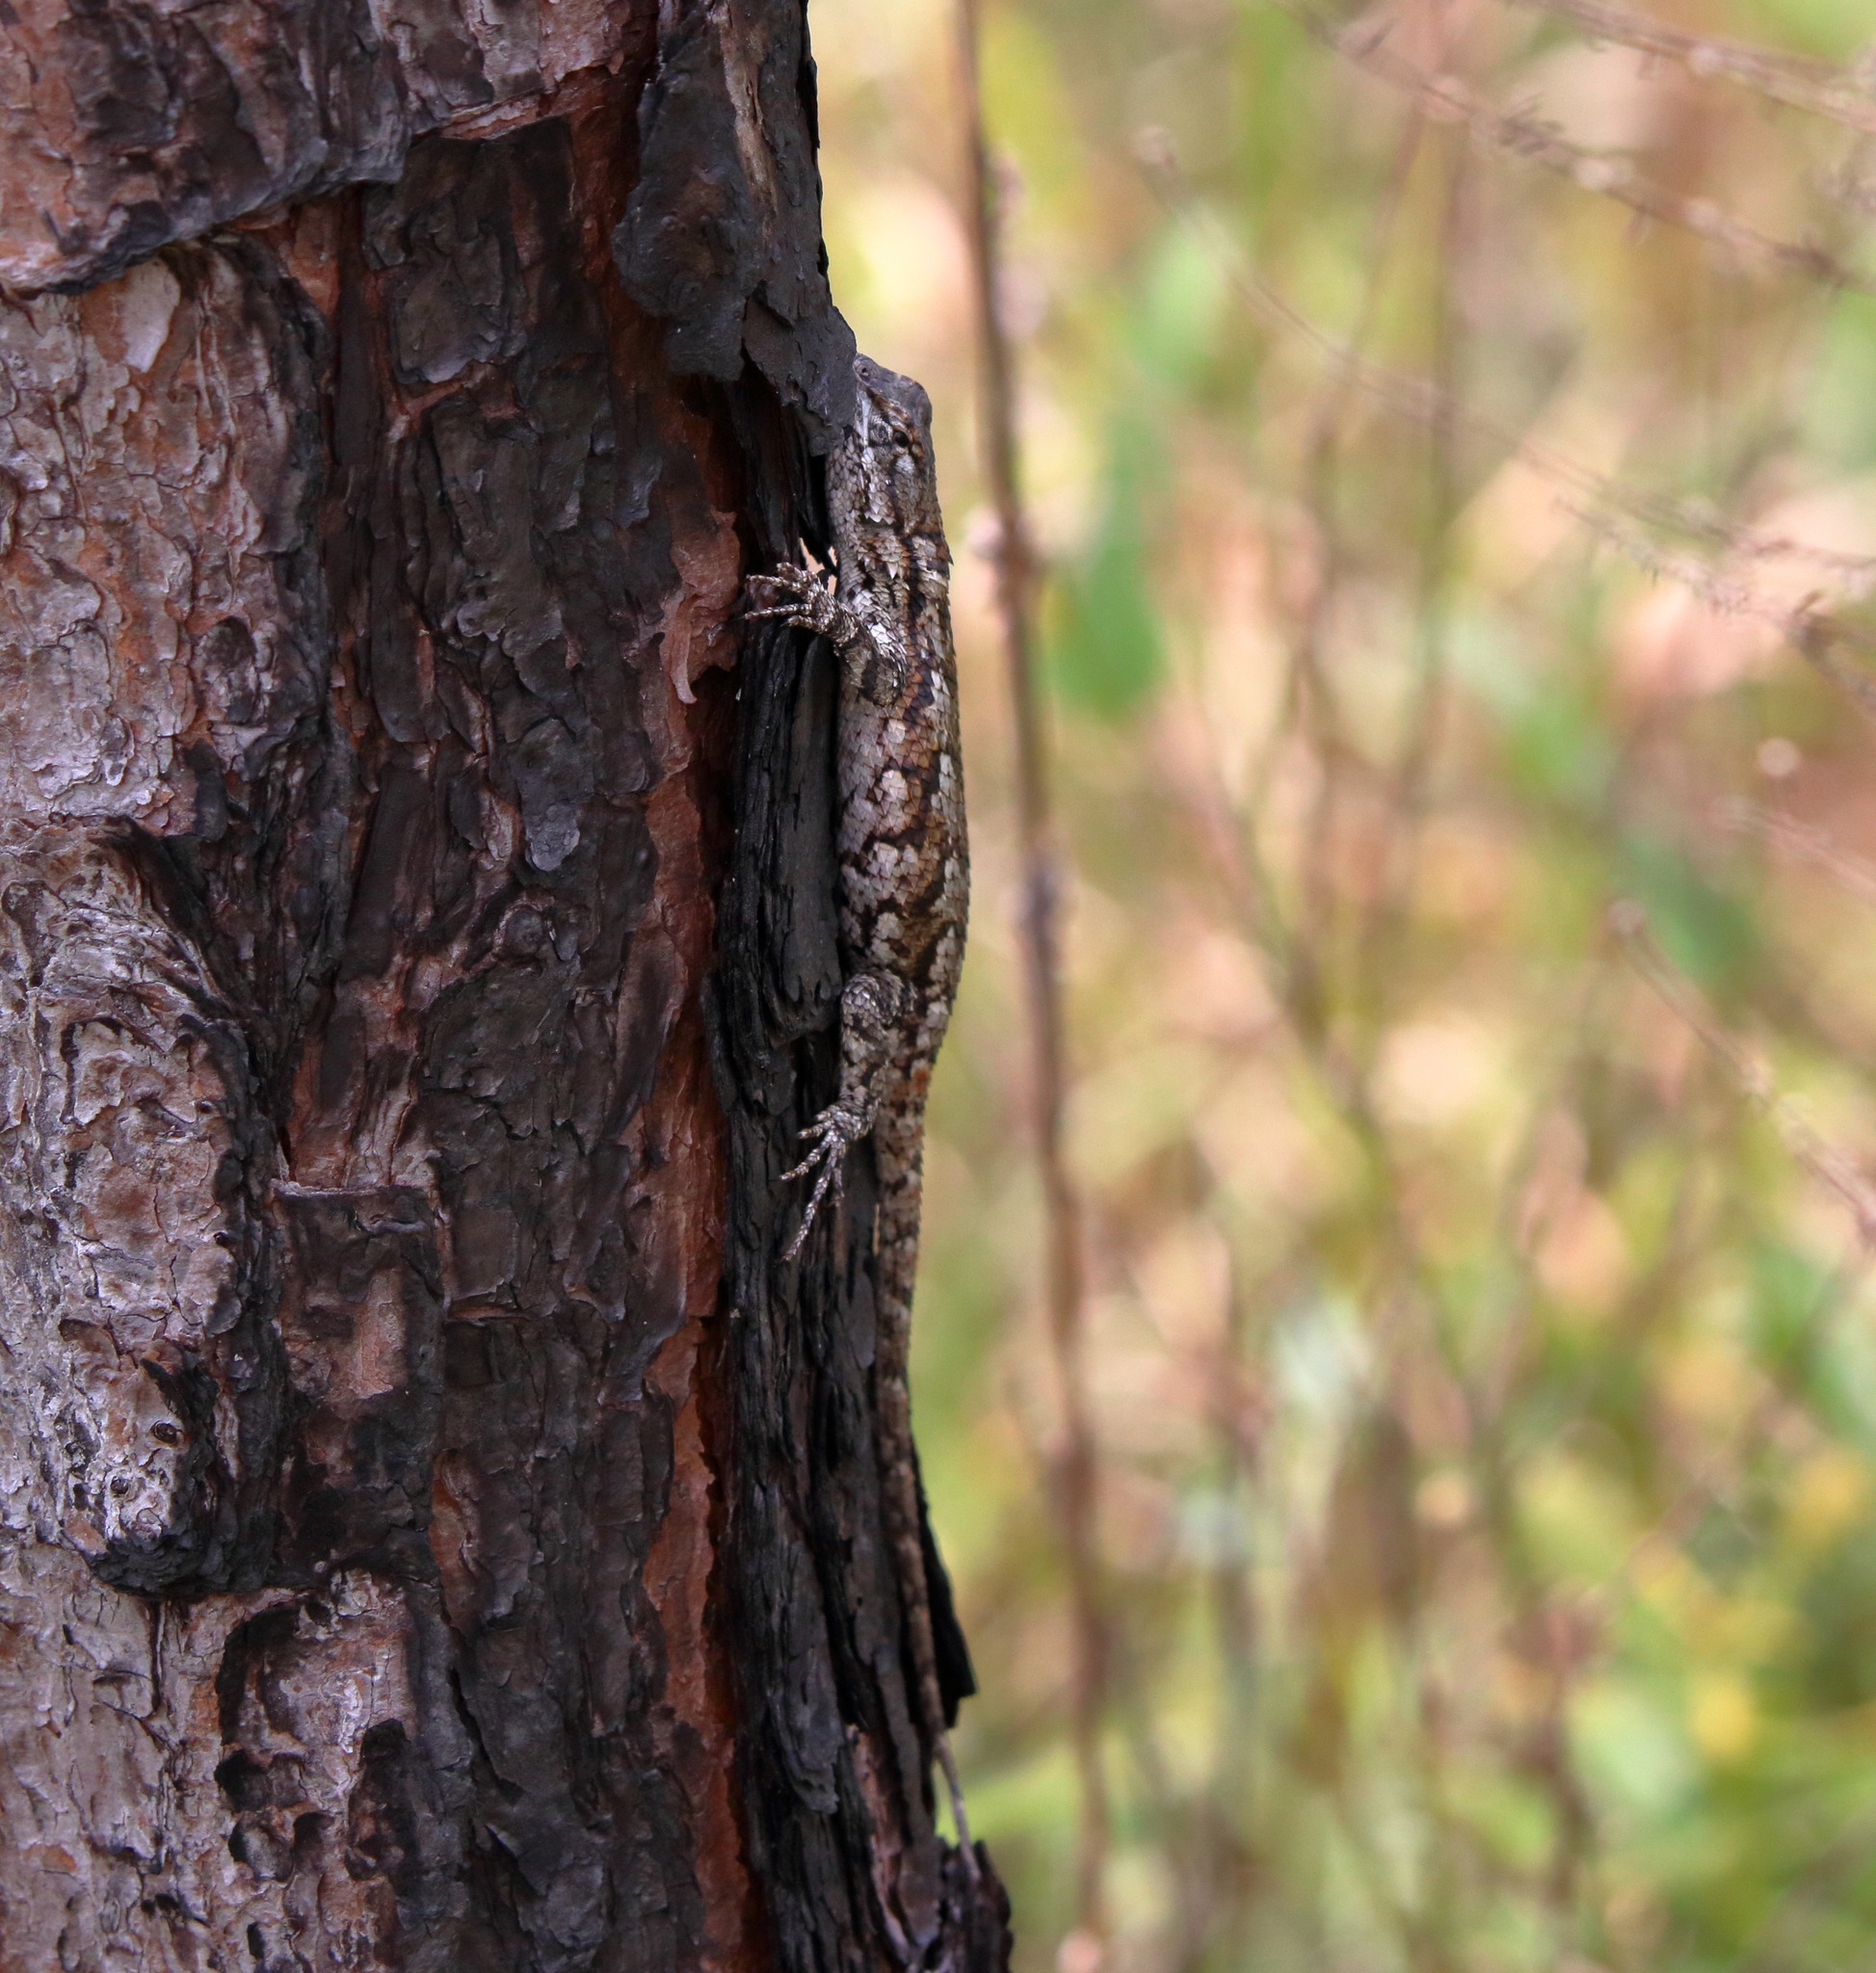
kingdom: Animalia
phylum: Chordata
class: Squamata
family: Phrynosomatidae
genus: Sceloporus
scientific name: Sceloporus undulatus
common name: Eastern fence lizard
